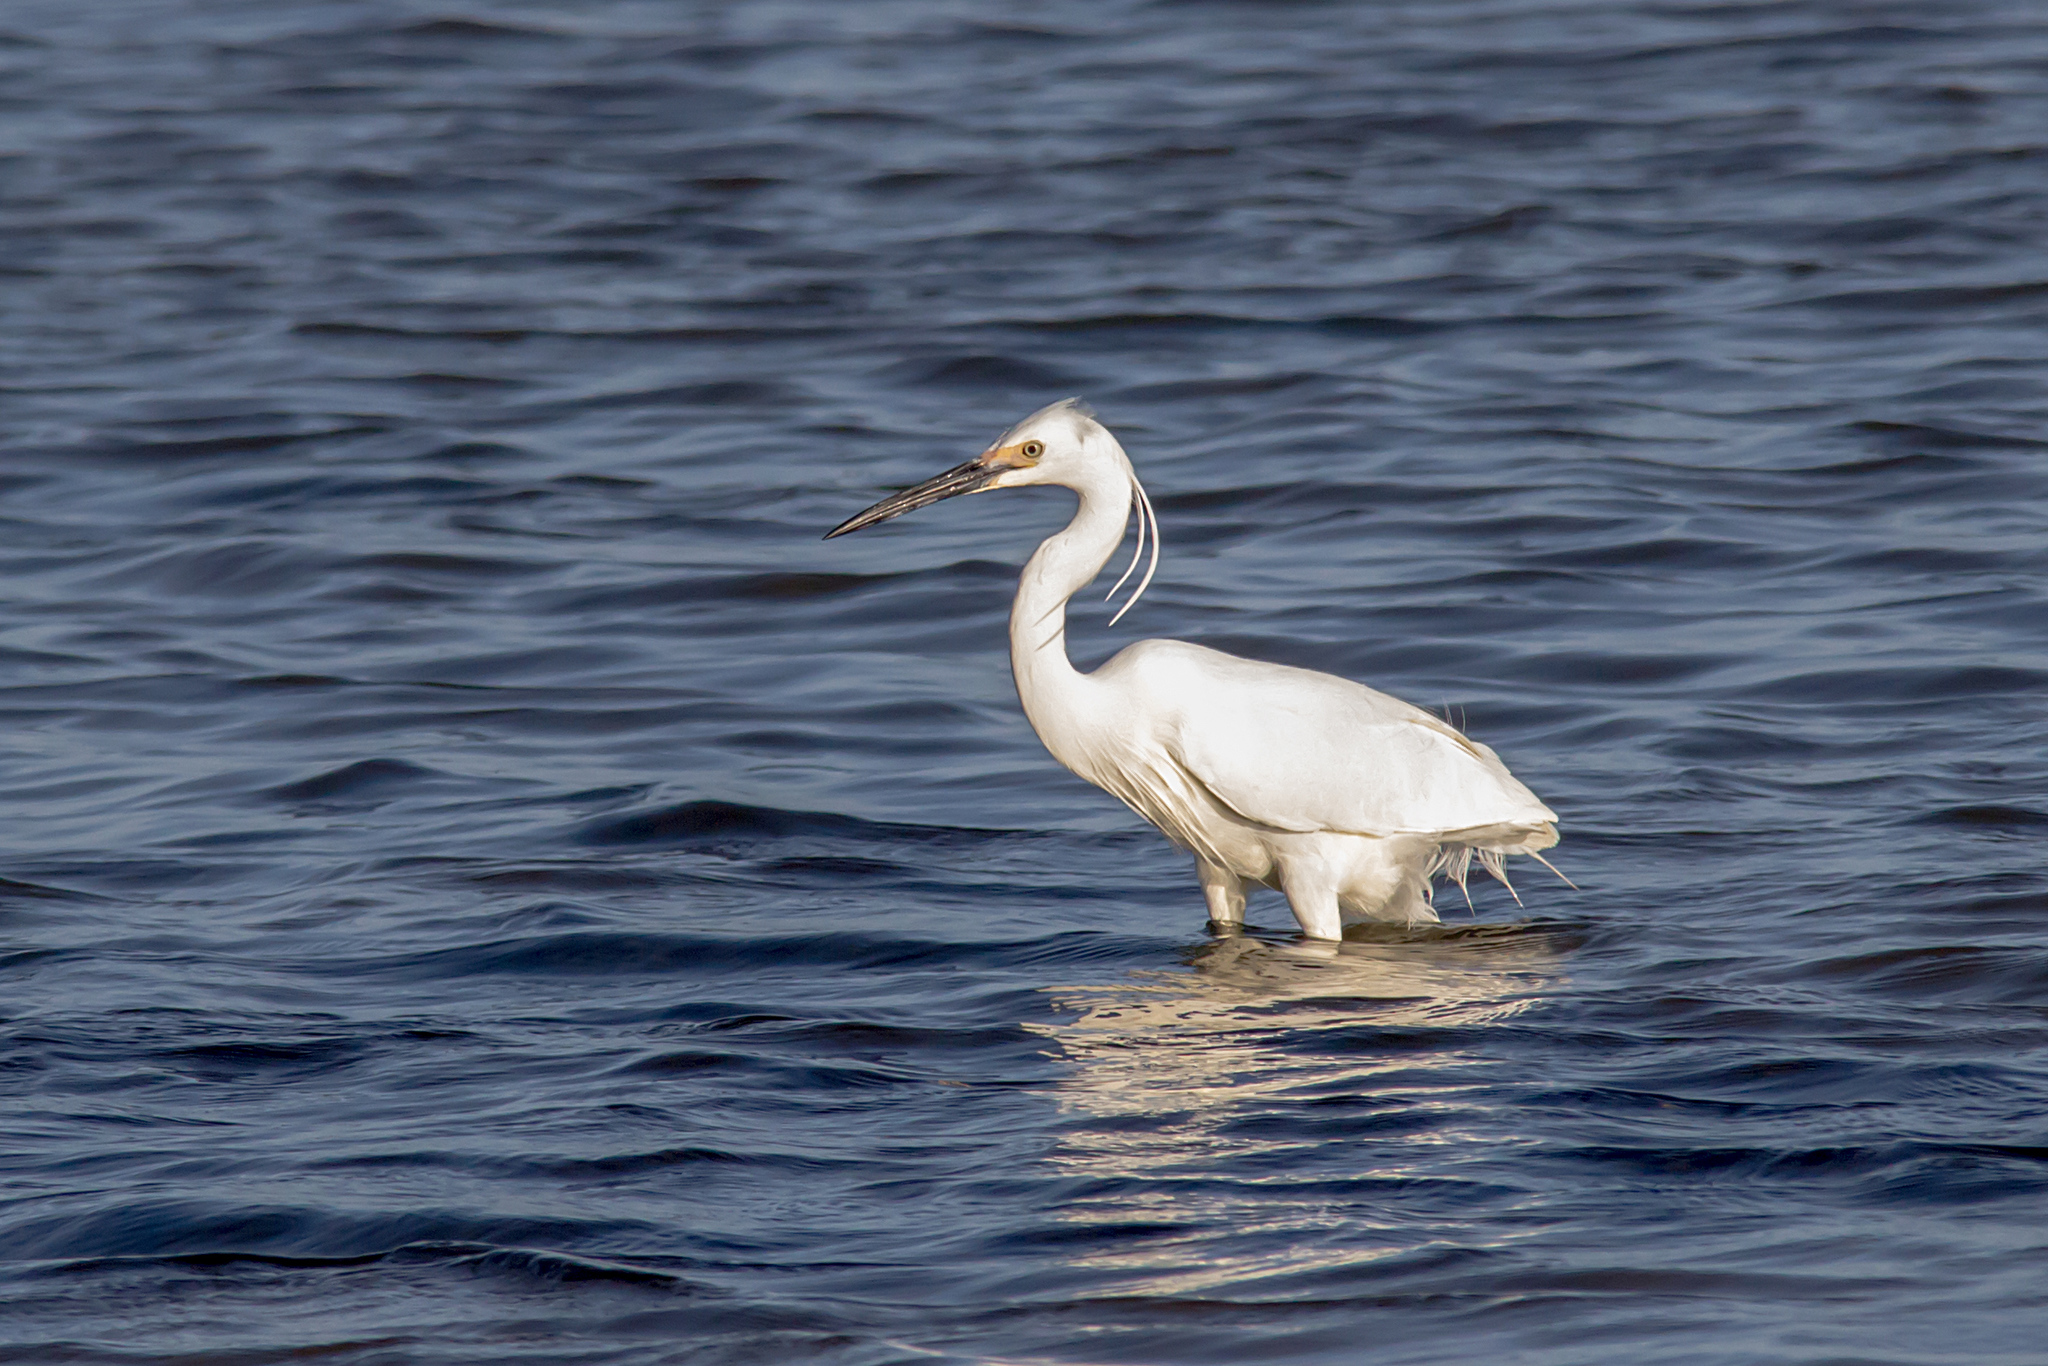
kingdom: Animalia
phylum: Chordata
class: Aves
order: Pelecaniformes
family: Ardeidae
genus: Egretta
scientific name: Egretta garzetta
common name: Little egret
